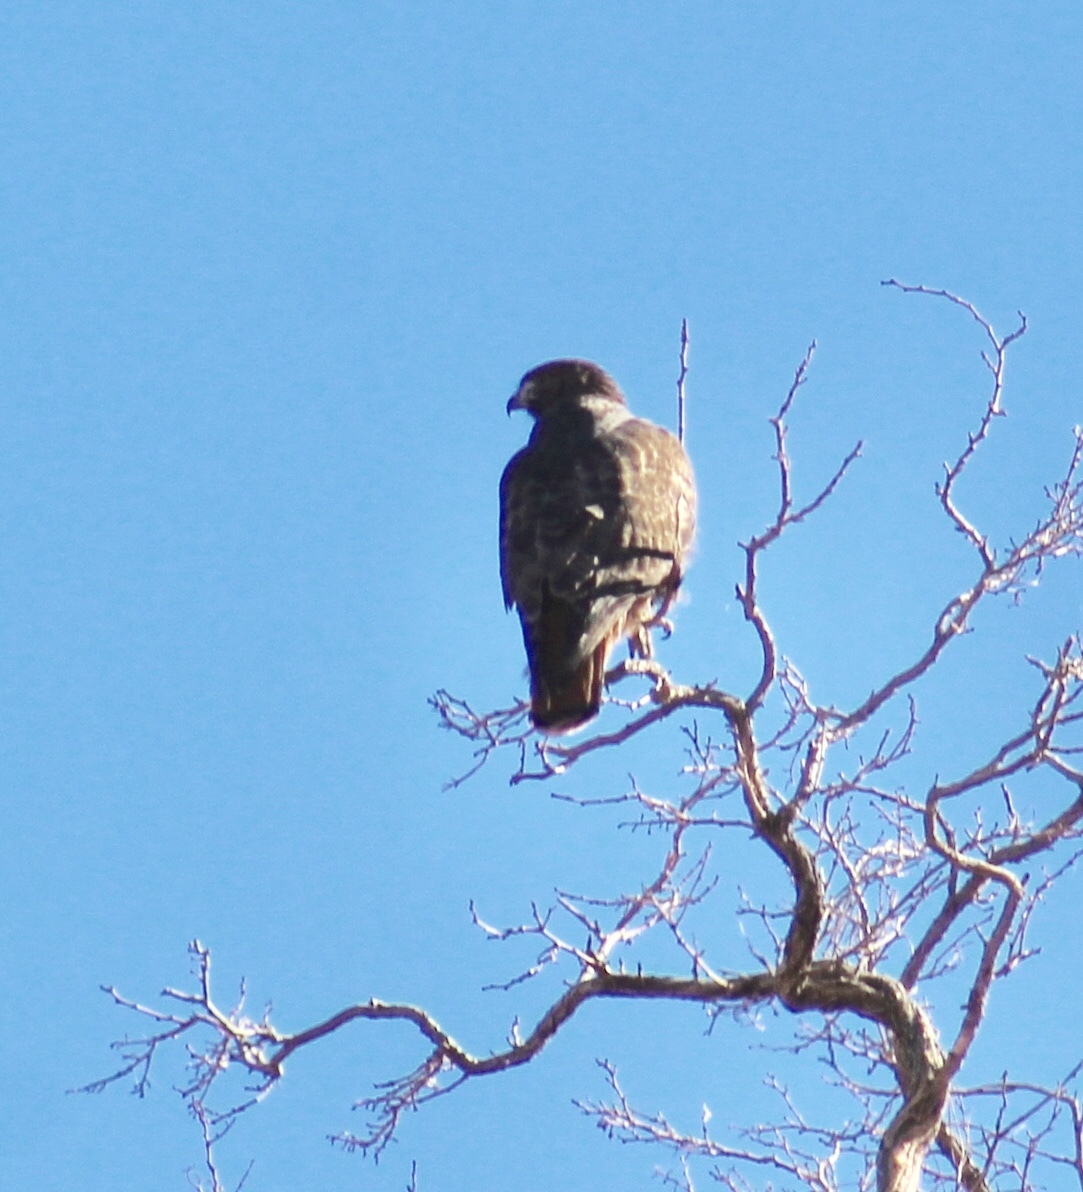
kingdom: Animalia
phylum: Chordata
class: Aves
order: Accipitriformes
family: Accipitridae
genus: Buteo
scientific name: Buteo jamaicensis
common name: Red-tailed hawk
